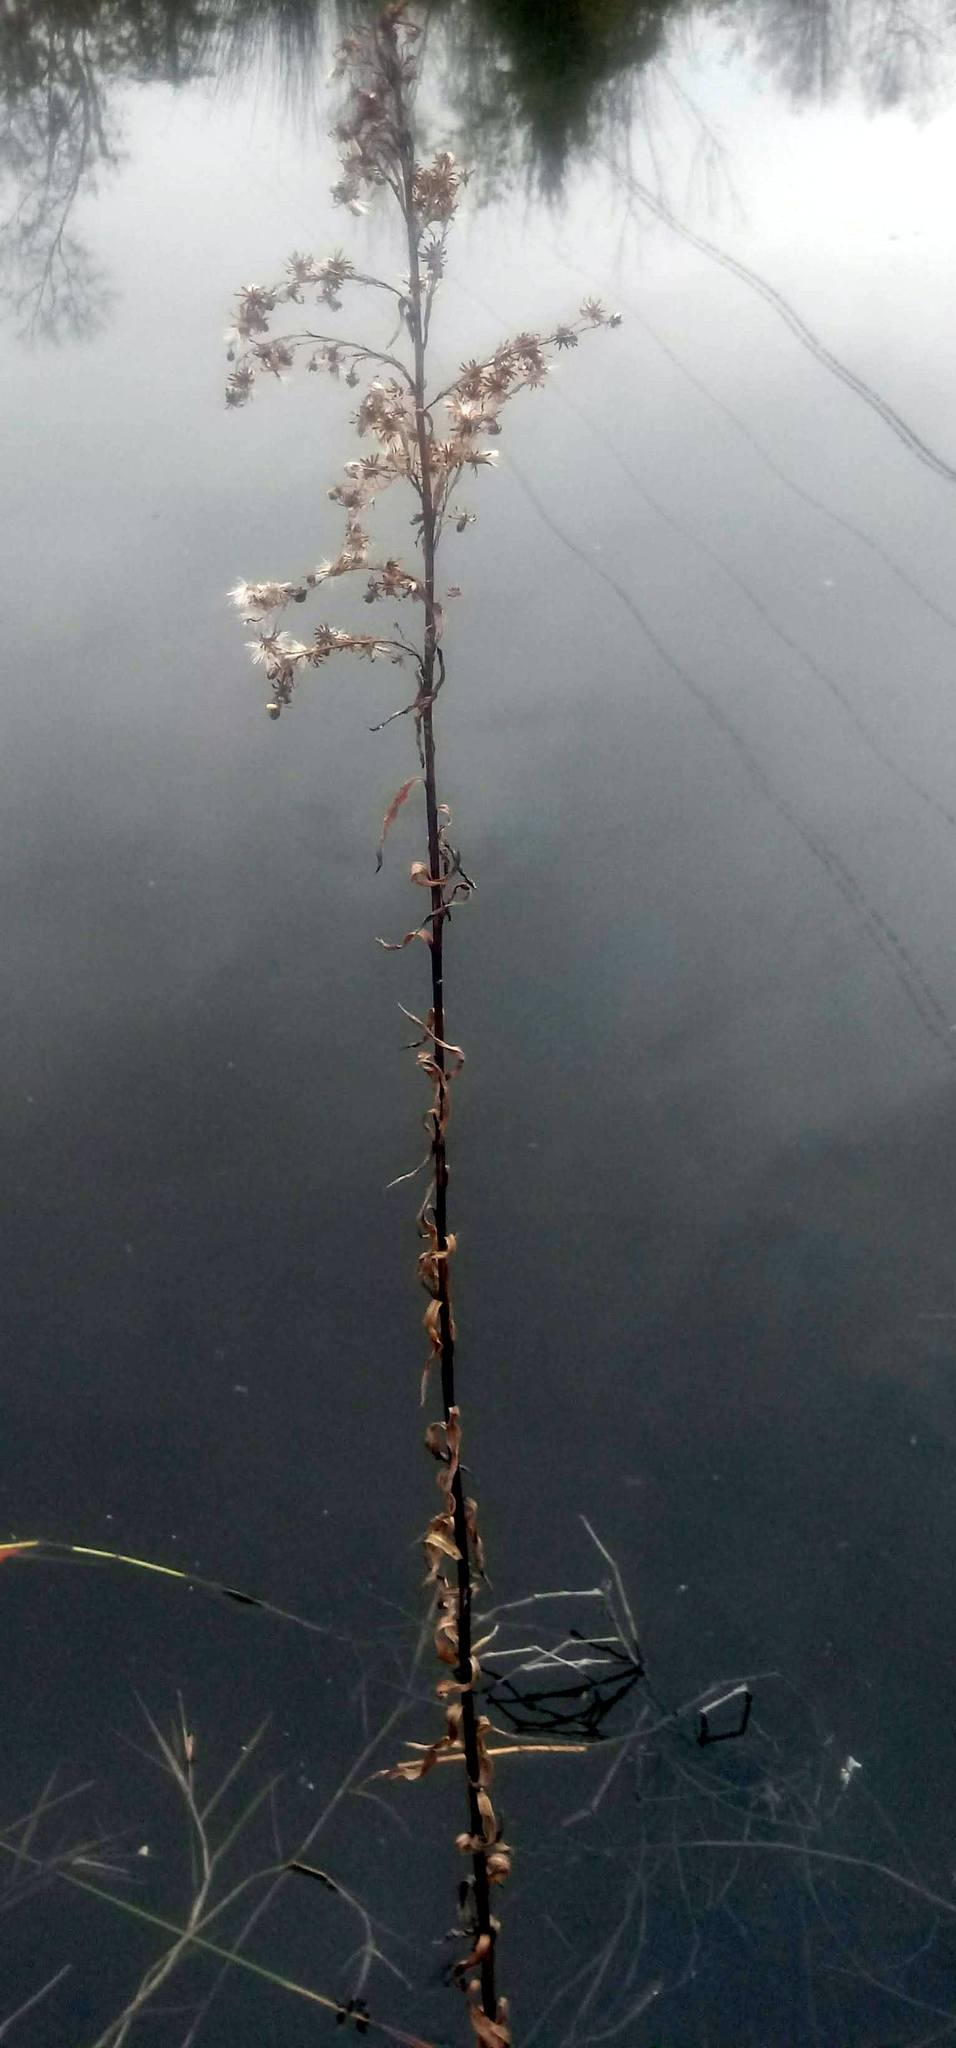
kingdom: Plantae
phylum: Tracheophyta
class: Magnoliopsida
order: Asterales
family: Asteraceae
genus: Solidago
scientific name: Solidago mexicana
